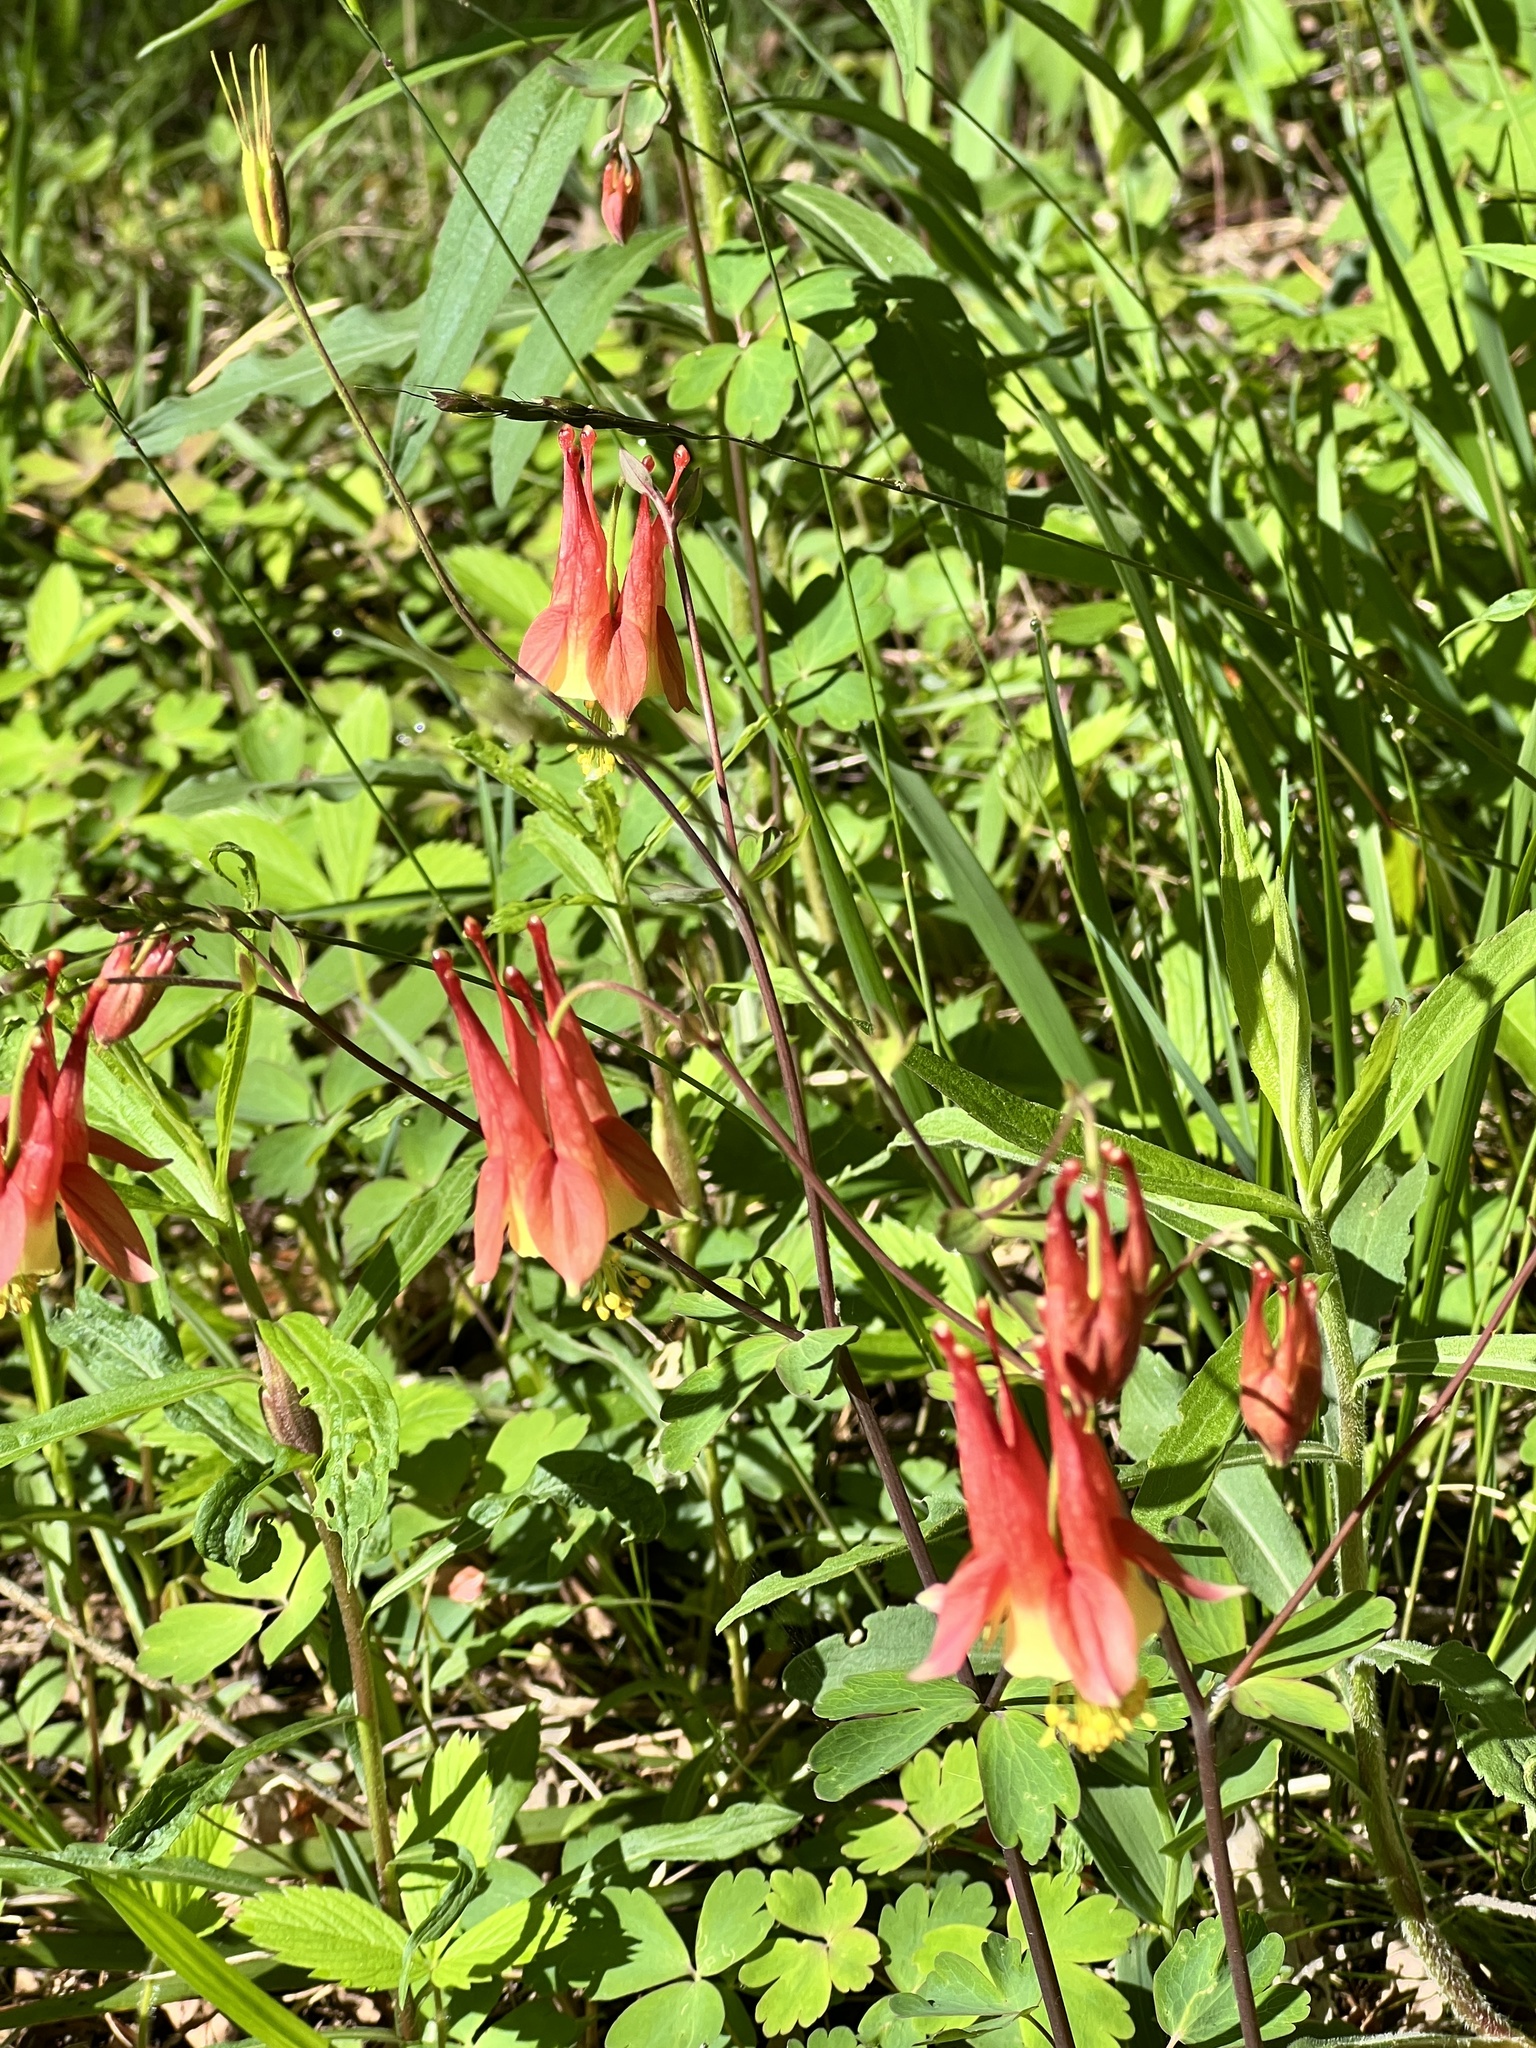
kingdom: Plantae
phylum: Tracheophyta
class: Magnoliopsida
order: Ranunculales
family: Ranunculaceae
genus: Aquilegia
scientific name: Aquilegia canadensis
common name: American columbine
